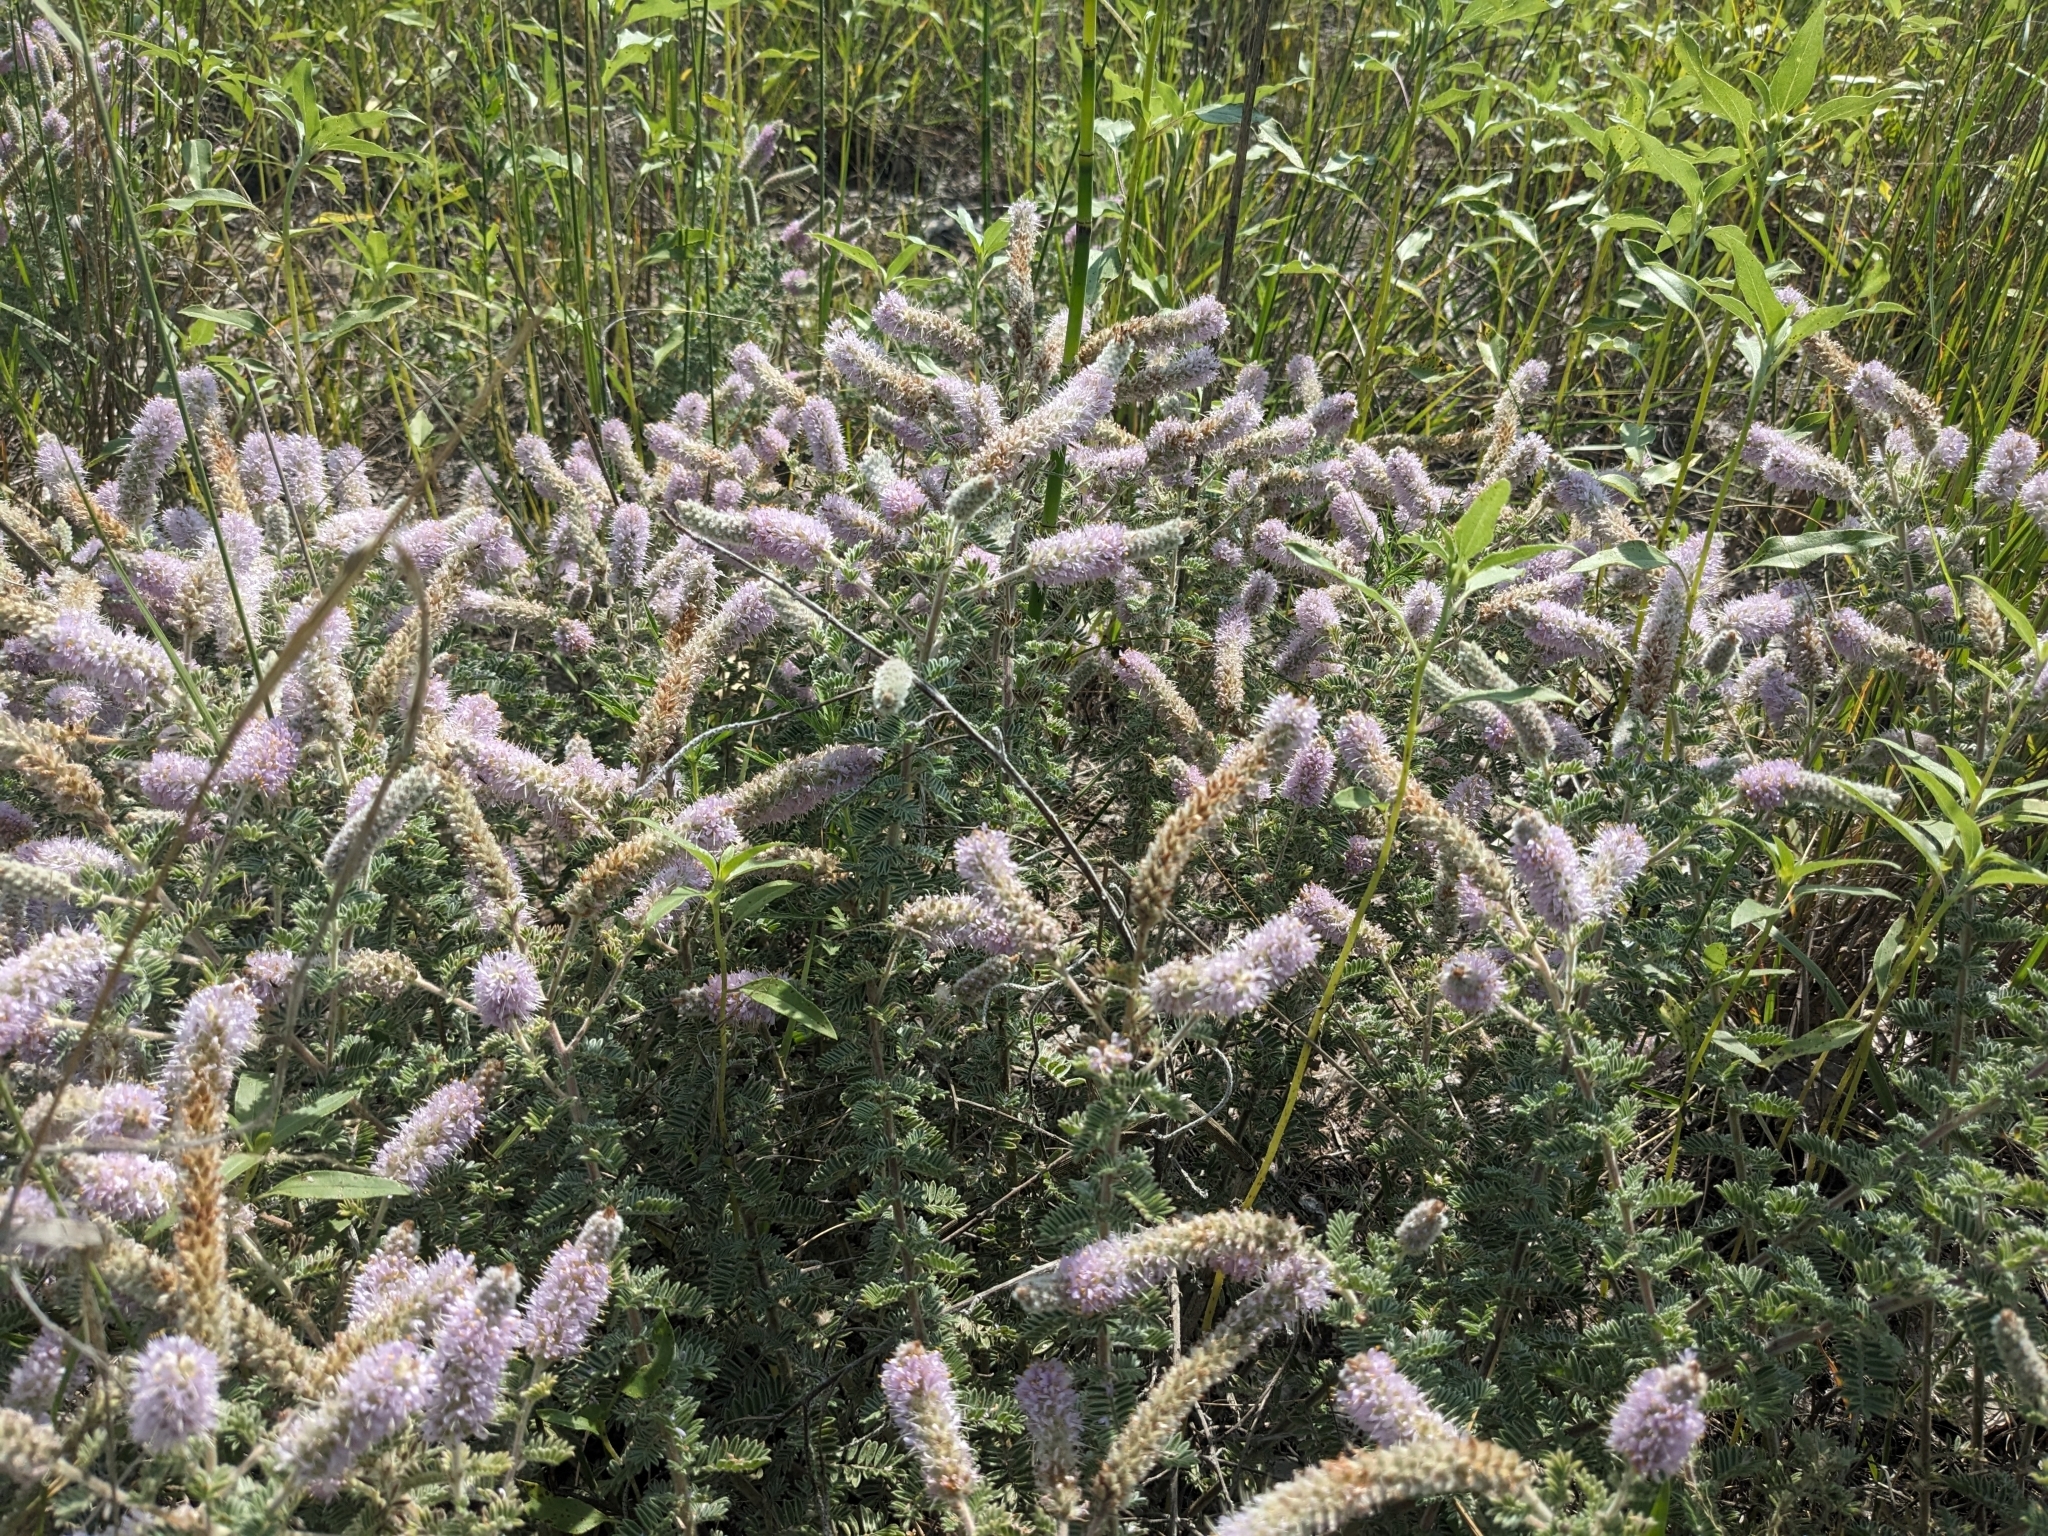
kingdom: Plantae
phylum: Tracheophyta
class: Magnoliopsida
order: Fabales
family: Fabaceae
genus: Dalea
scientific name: Dalea villosa
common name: Silky prairie-clover
